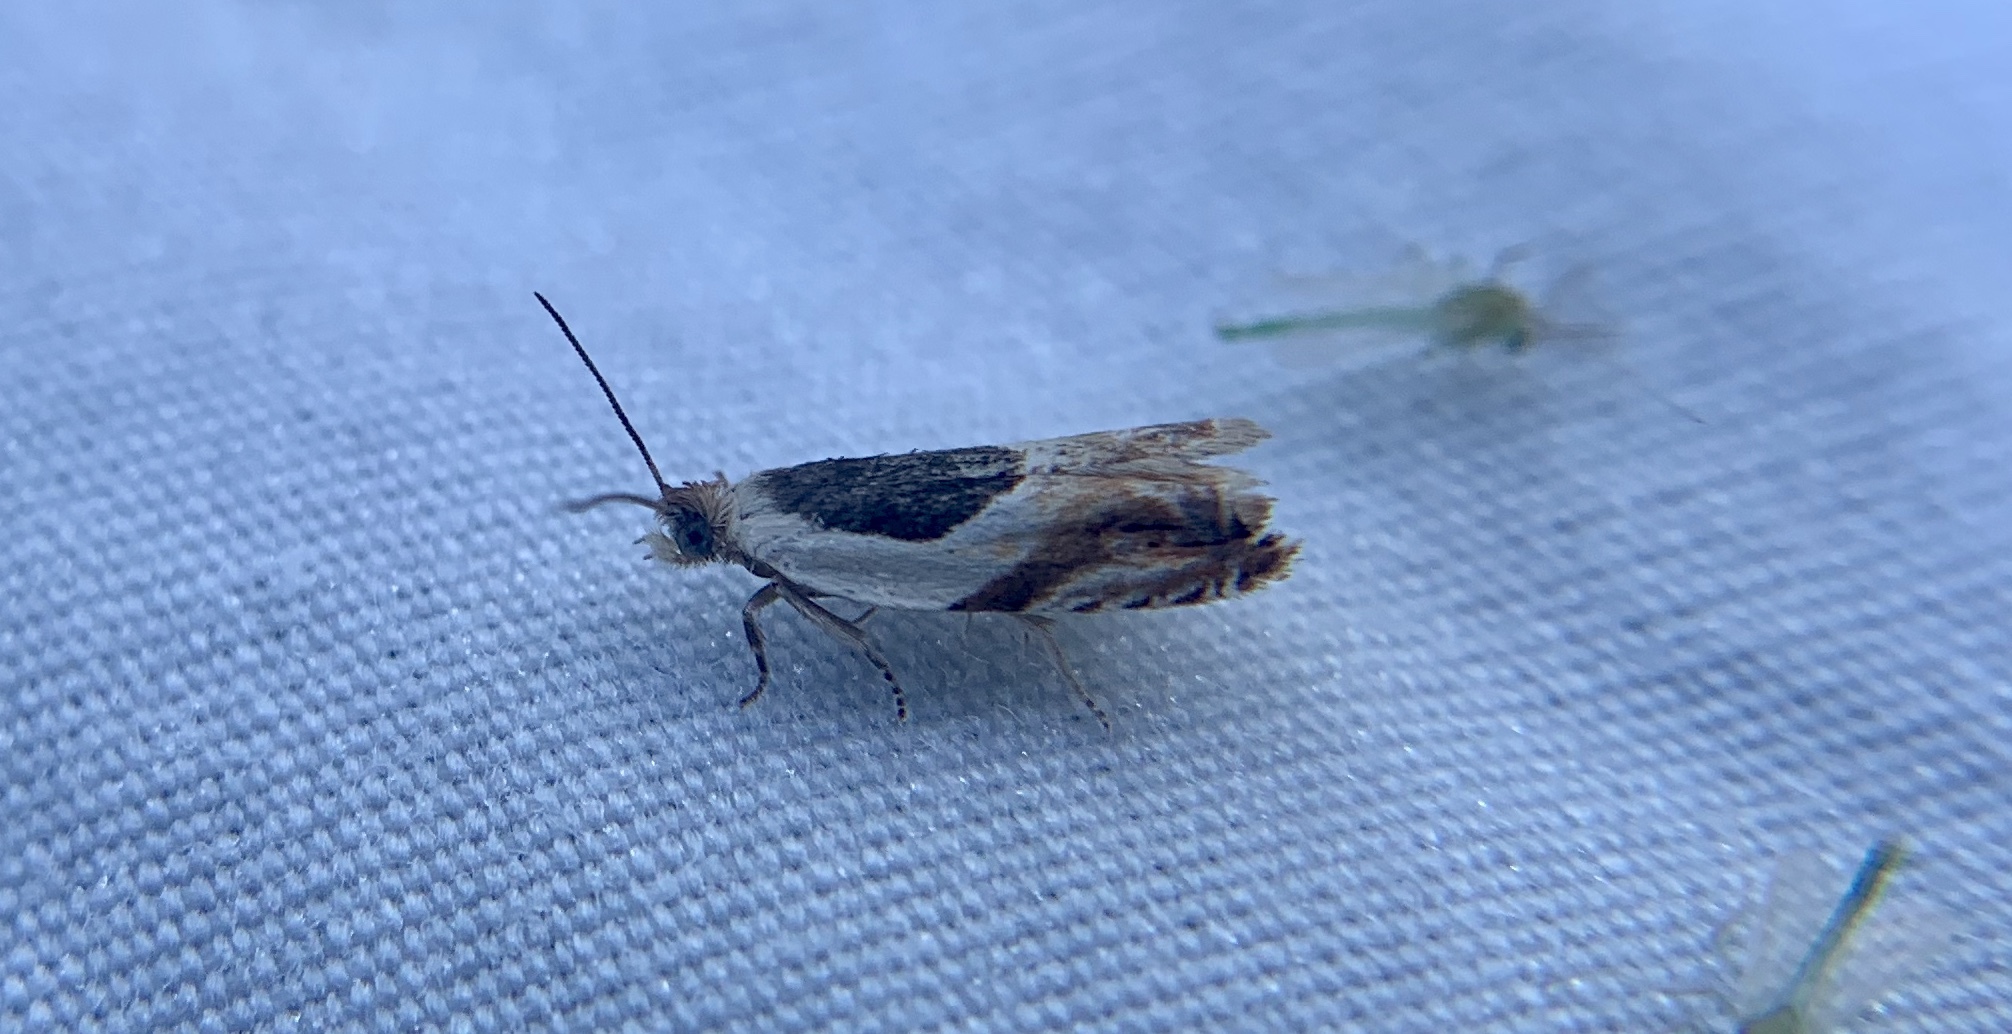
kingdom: Animalia
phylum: Arthropoda
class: Insecta
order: Lepidoptera
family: Tortricidae
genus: Ancylis
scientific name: Ancylis burgessiana
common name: Oak leaffolder moth
